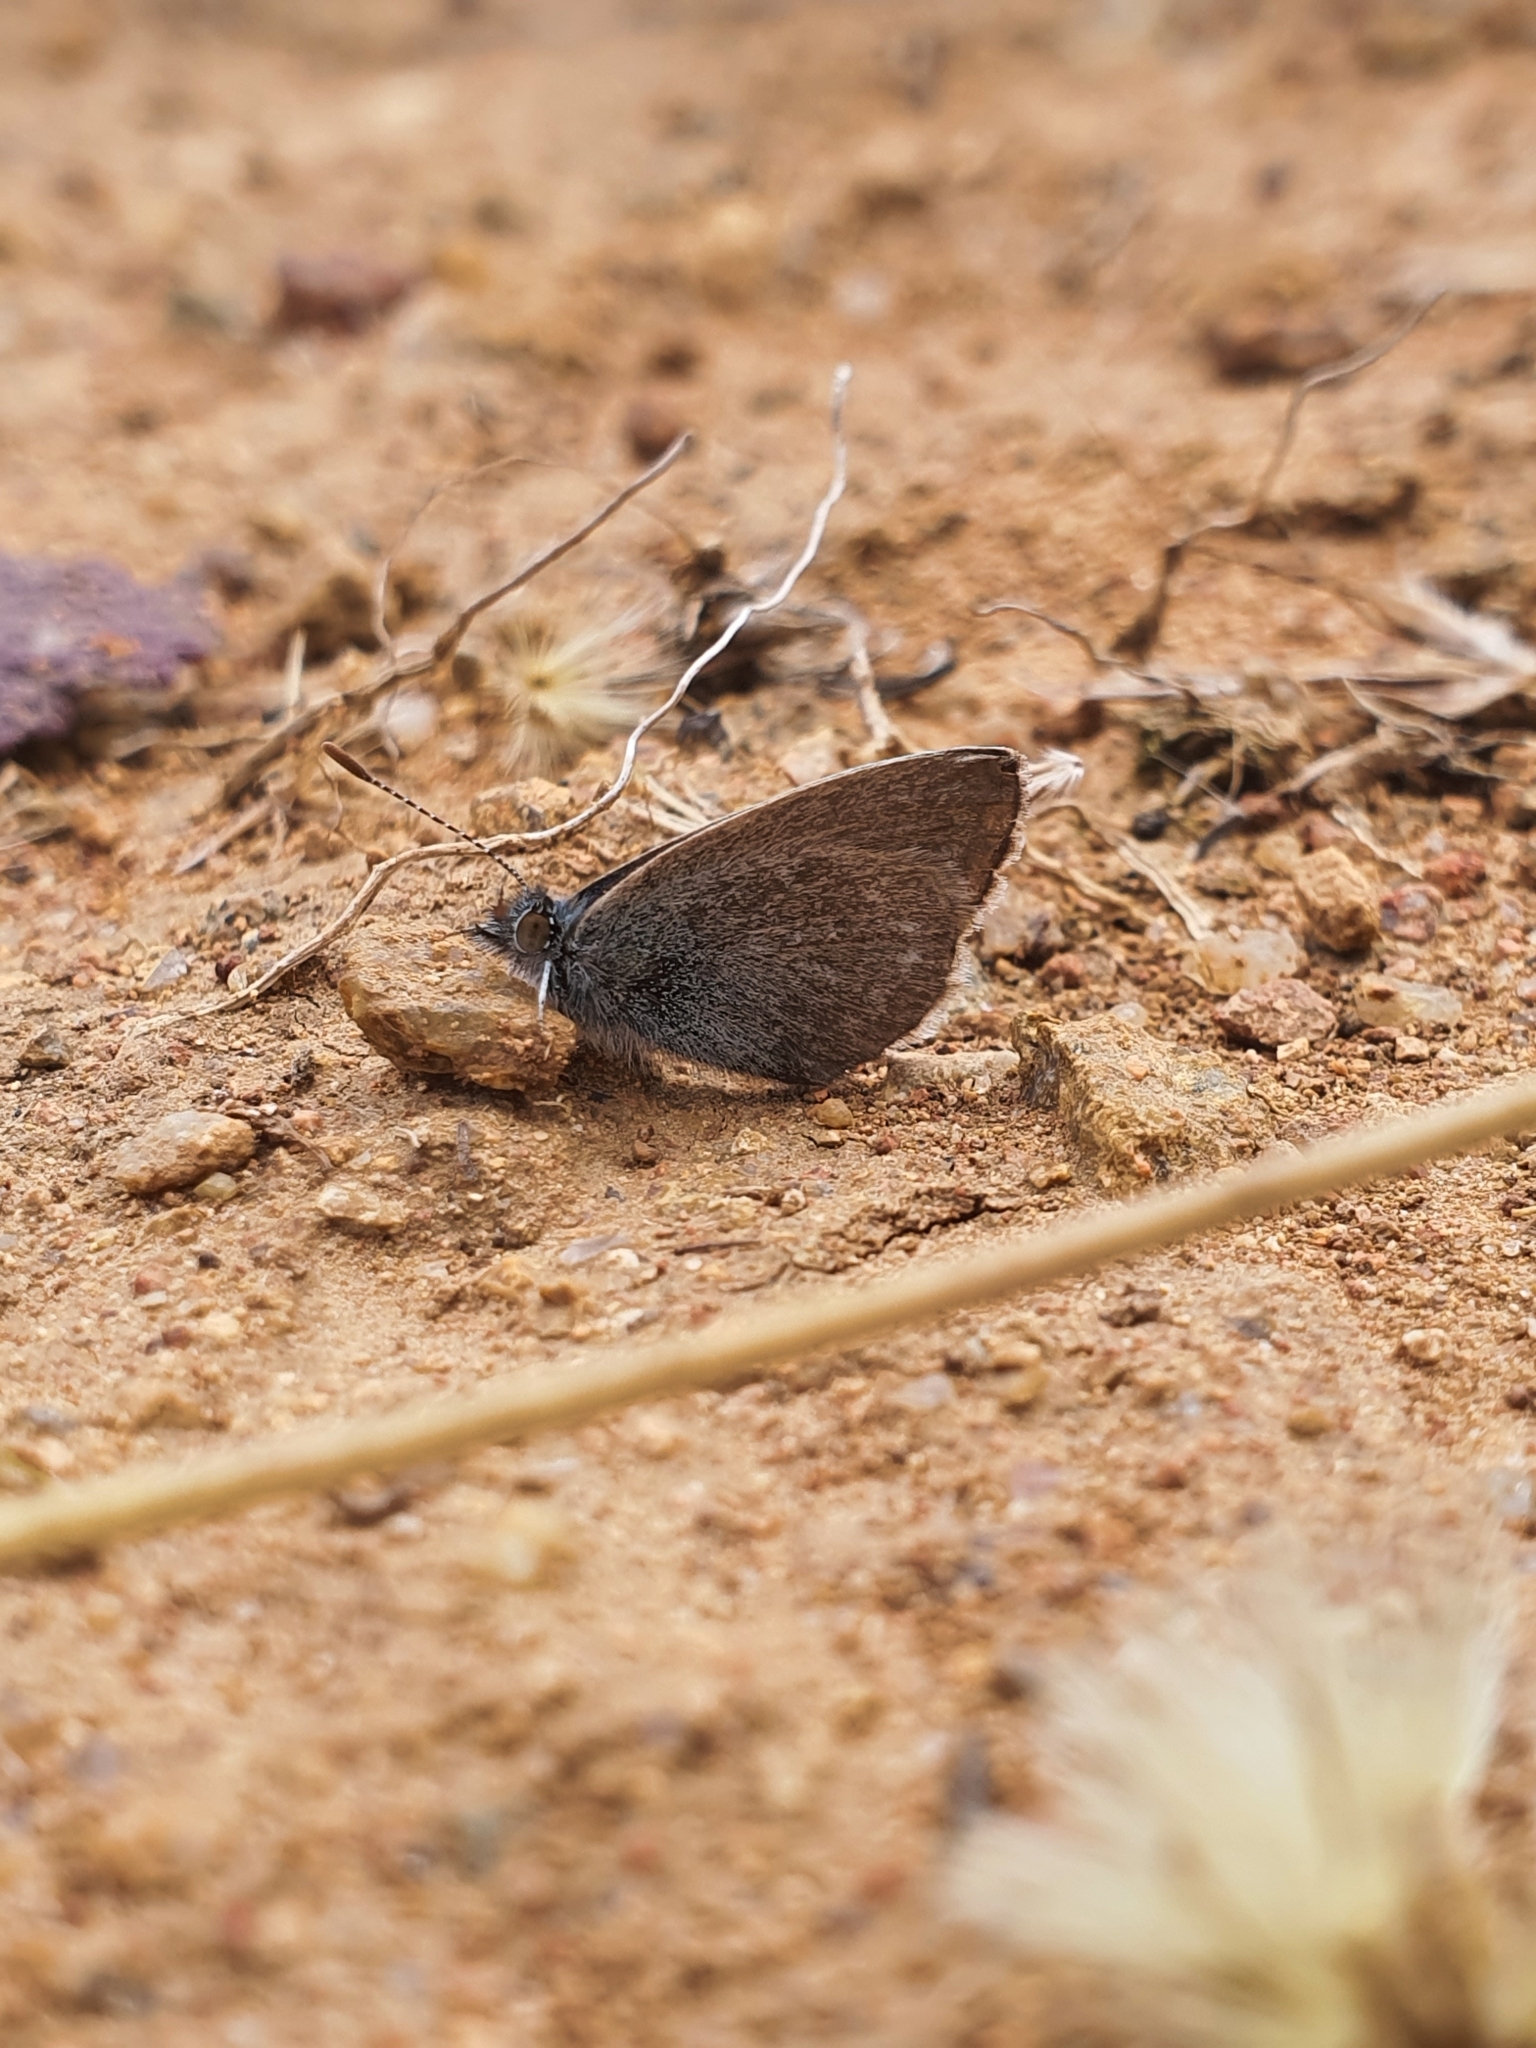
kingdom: Animalia
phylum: Arthropoda
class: Insecta
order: Lepidoptera
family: Lycaenidae
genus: Zizina
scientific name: Zizina labradus
